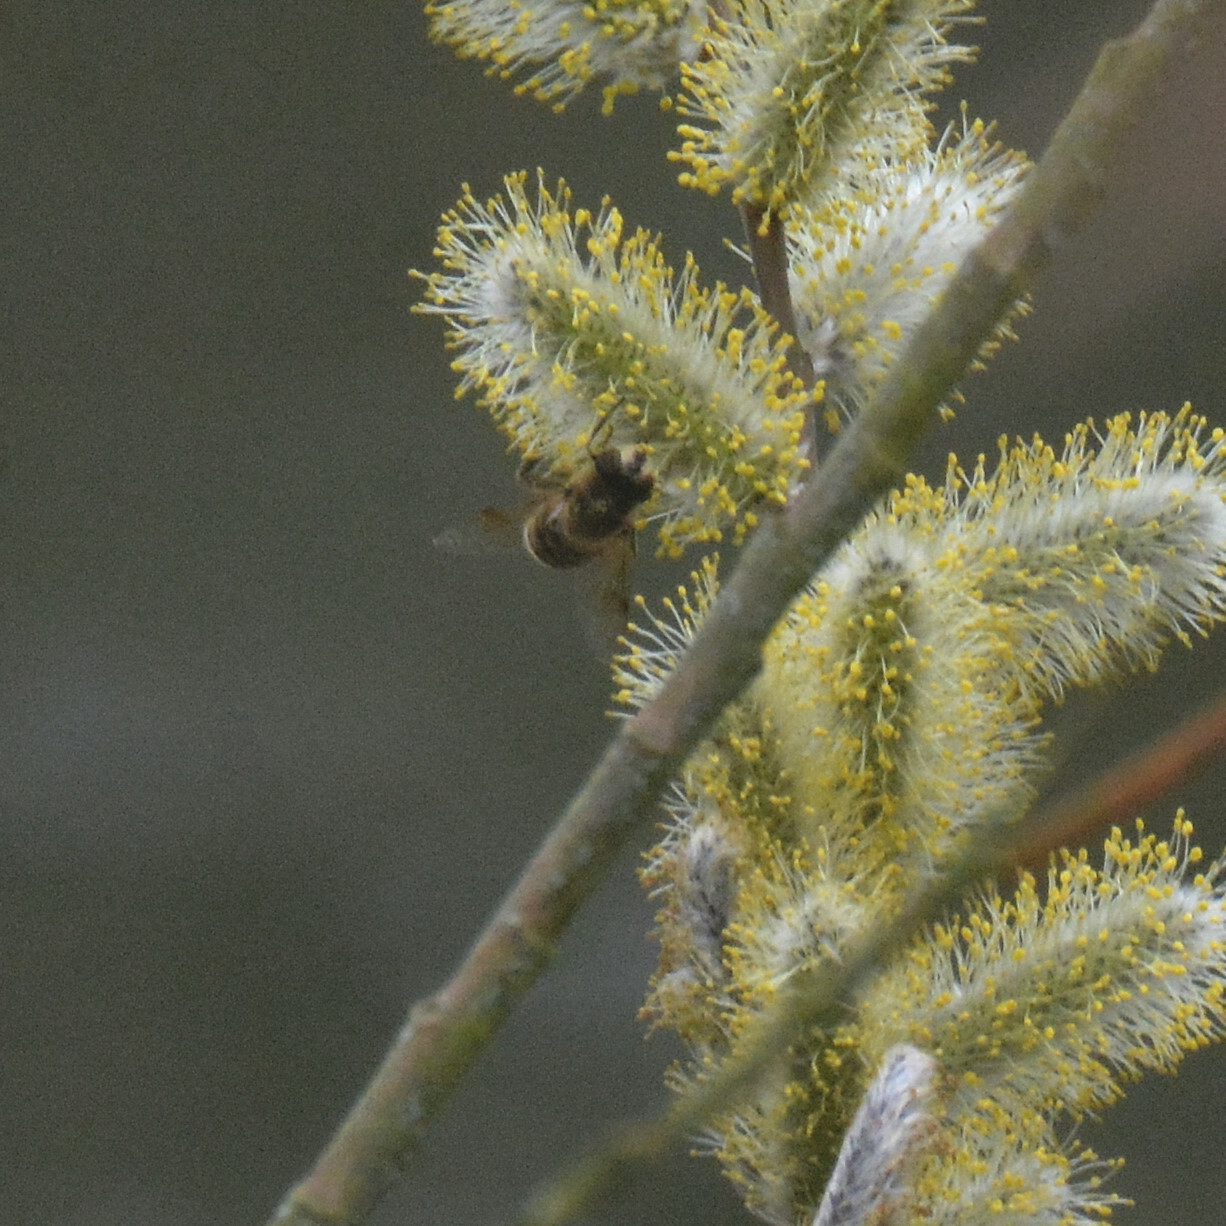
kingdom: Animalia
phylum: Arthropoda
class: Insecta
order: Diptera
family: Syrphidae
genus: Eristalis
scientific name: Eristalis tenax
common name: Drone fly
